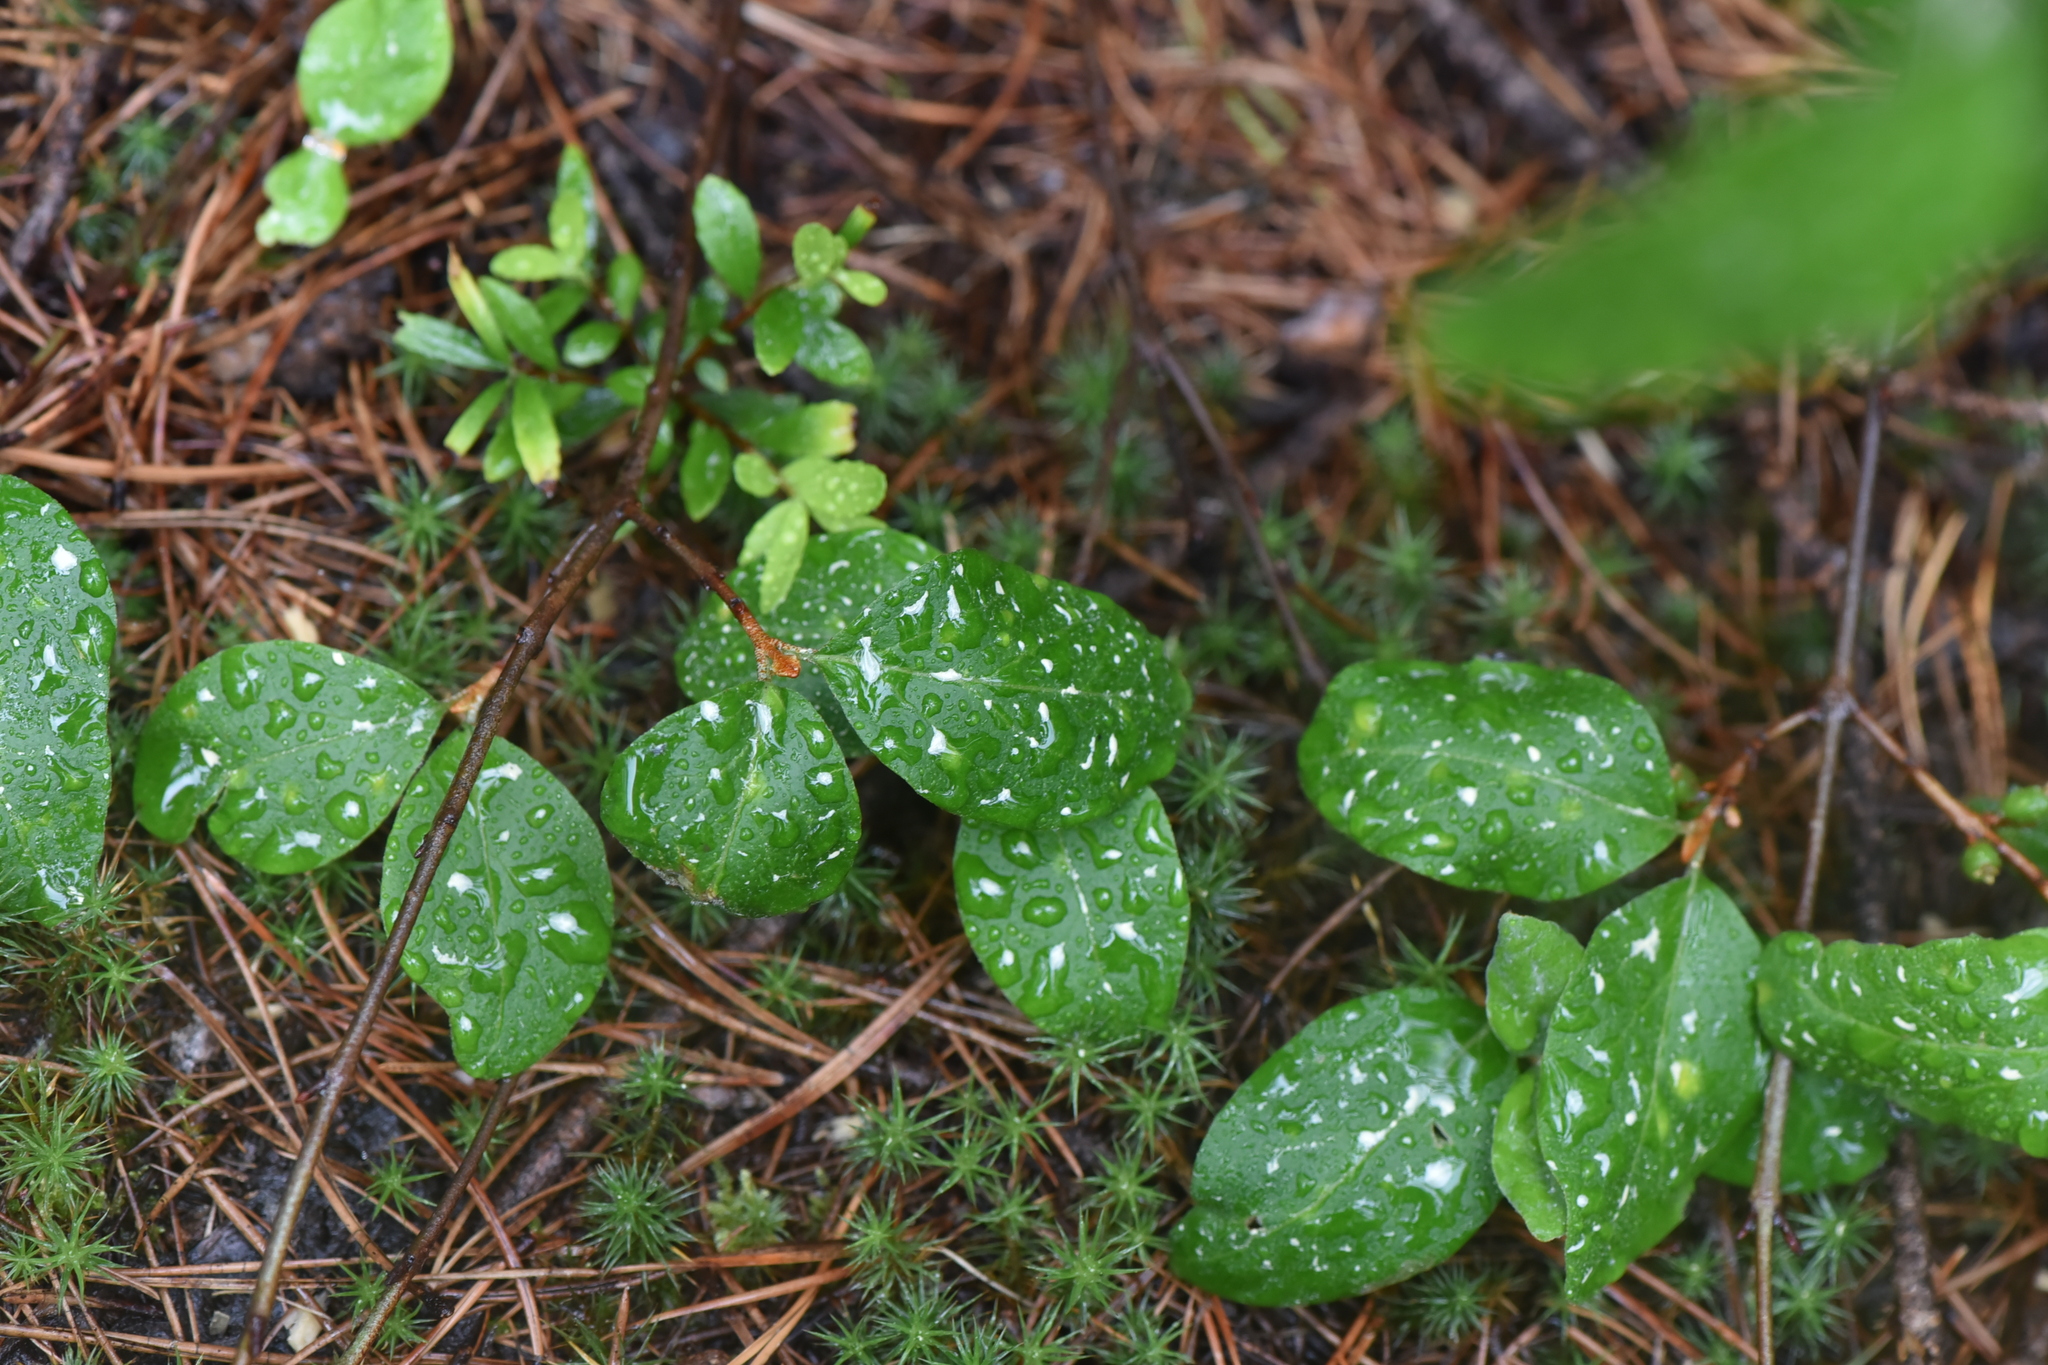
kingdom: Plantae
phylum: Tracheophyta
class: Magnoliopsida
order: Rosales
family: Elaeagnaceae
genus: Shepherdia
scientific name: Shepherdia canadensis
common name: Soapberry
